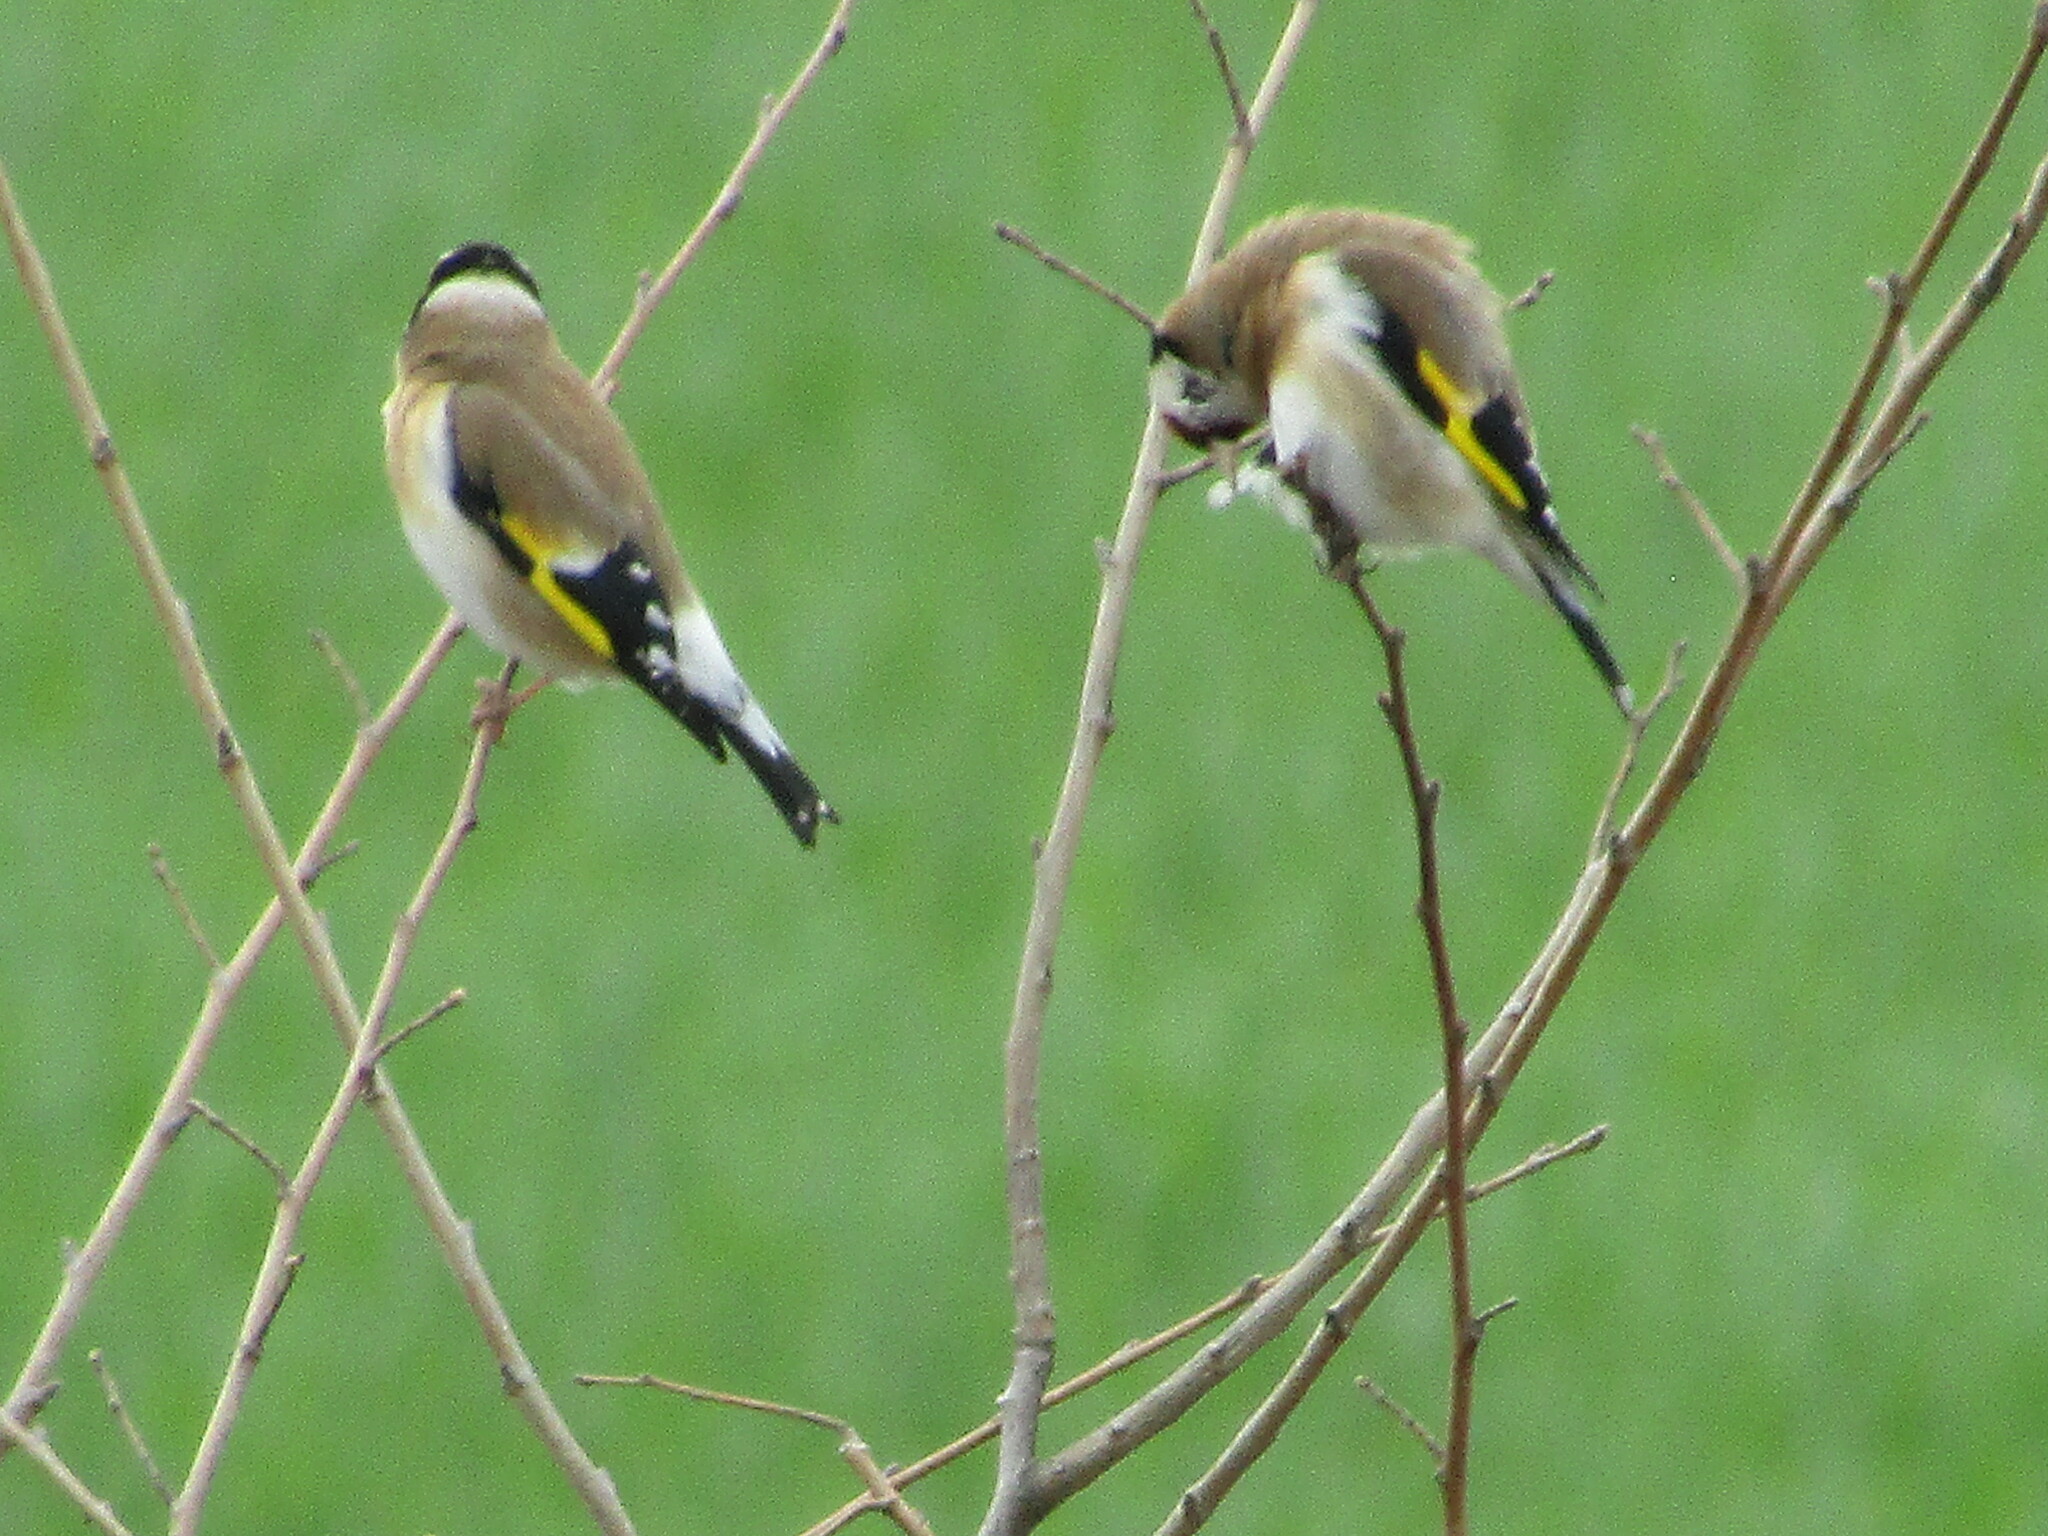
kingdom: Animalia
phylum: Chordata
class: Aves
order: Passeriformes
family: Fringillidae
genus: Carduelis
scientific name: Carduelis carduelis
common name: European goldfinch
